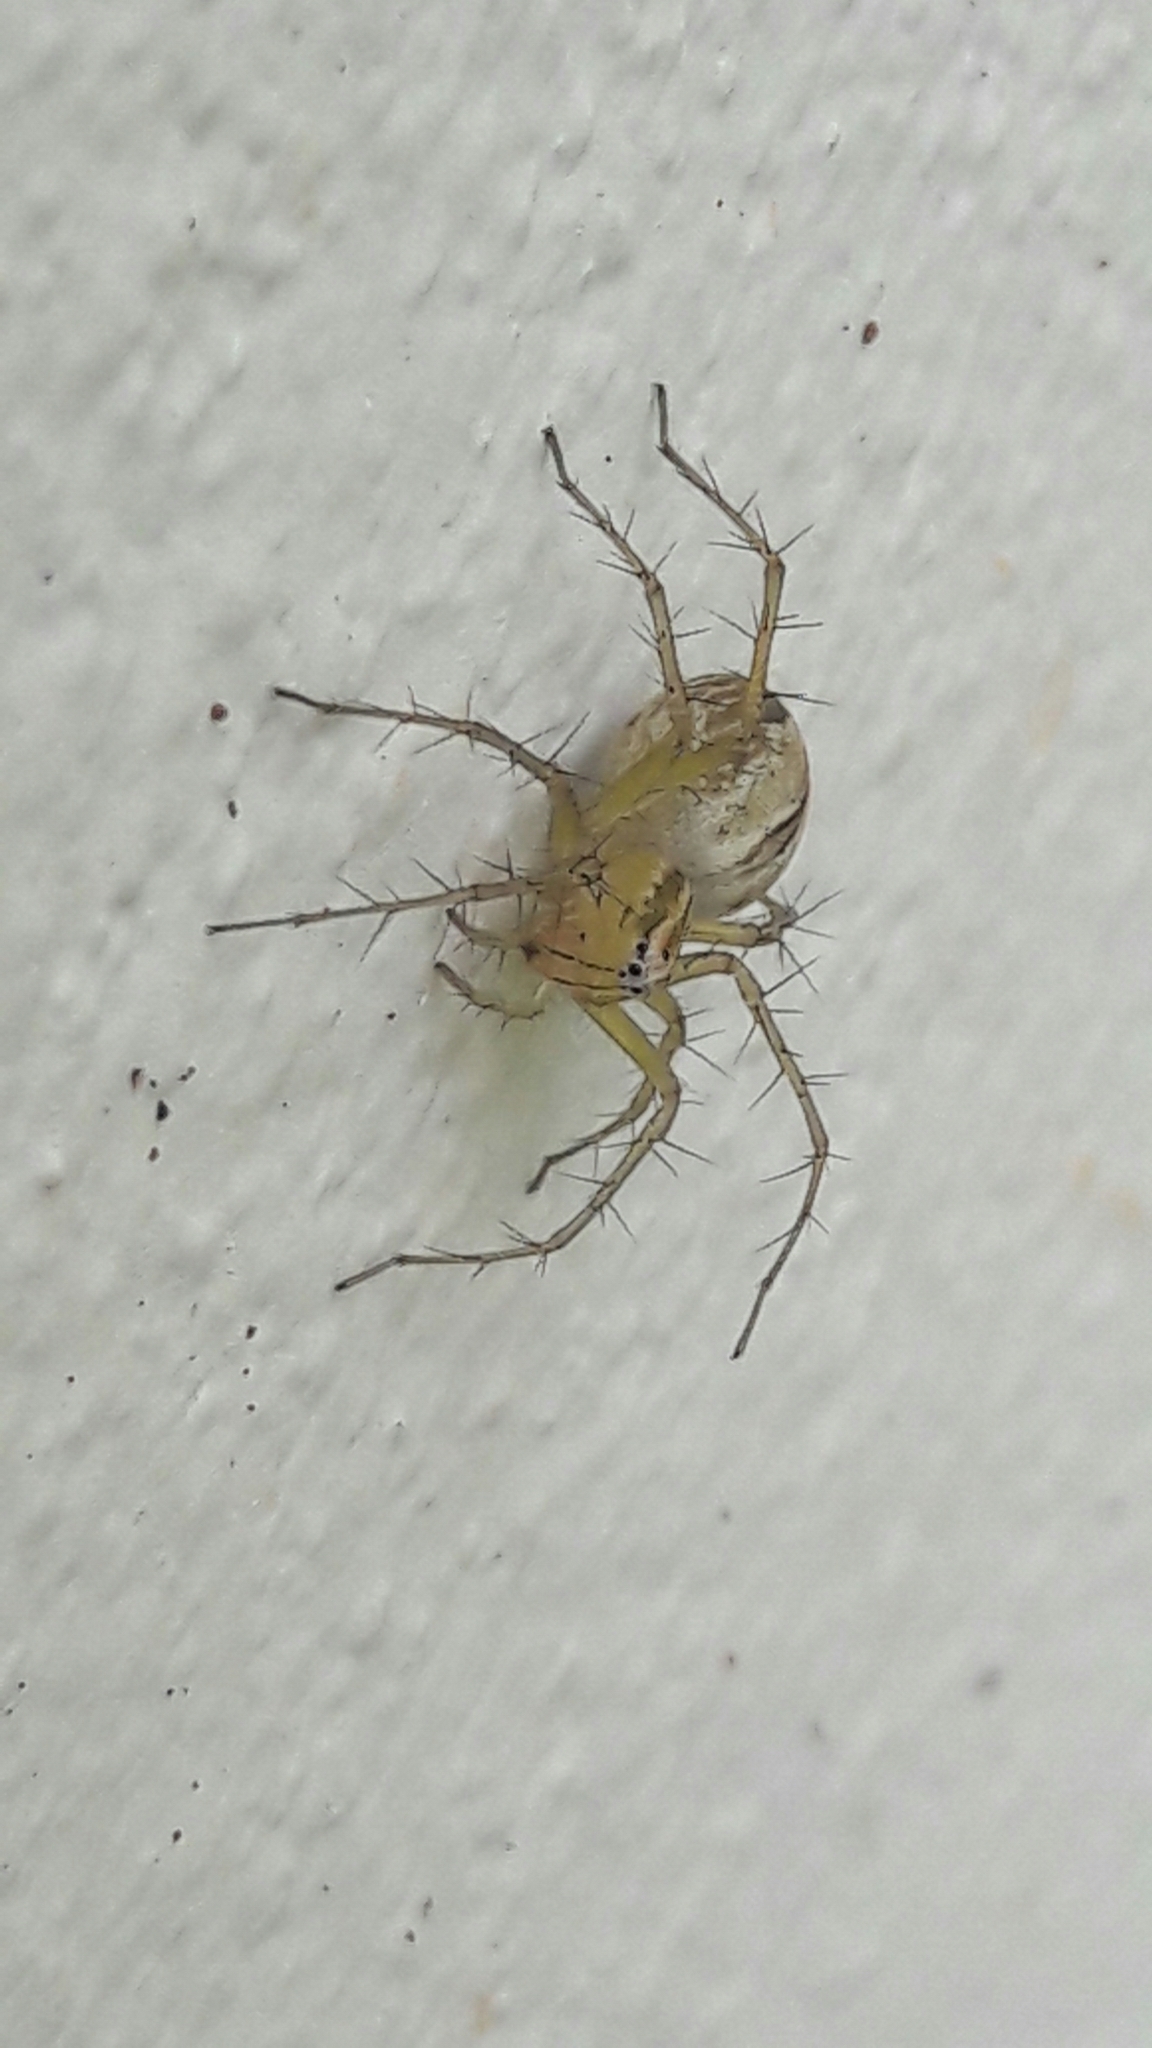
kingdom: Animalia
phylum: Arthropoda
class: Arachnida
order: Araneae
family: Oxyopidae
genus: Oxyopes
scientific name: Oxyopes salticus
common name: Lynx spiders
